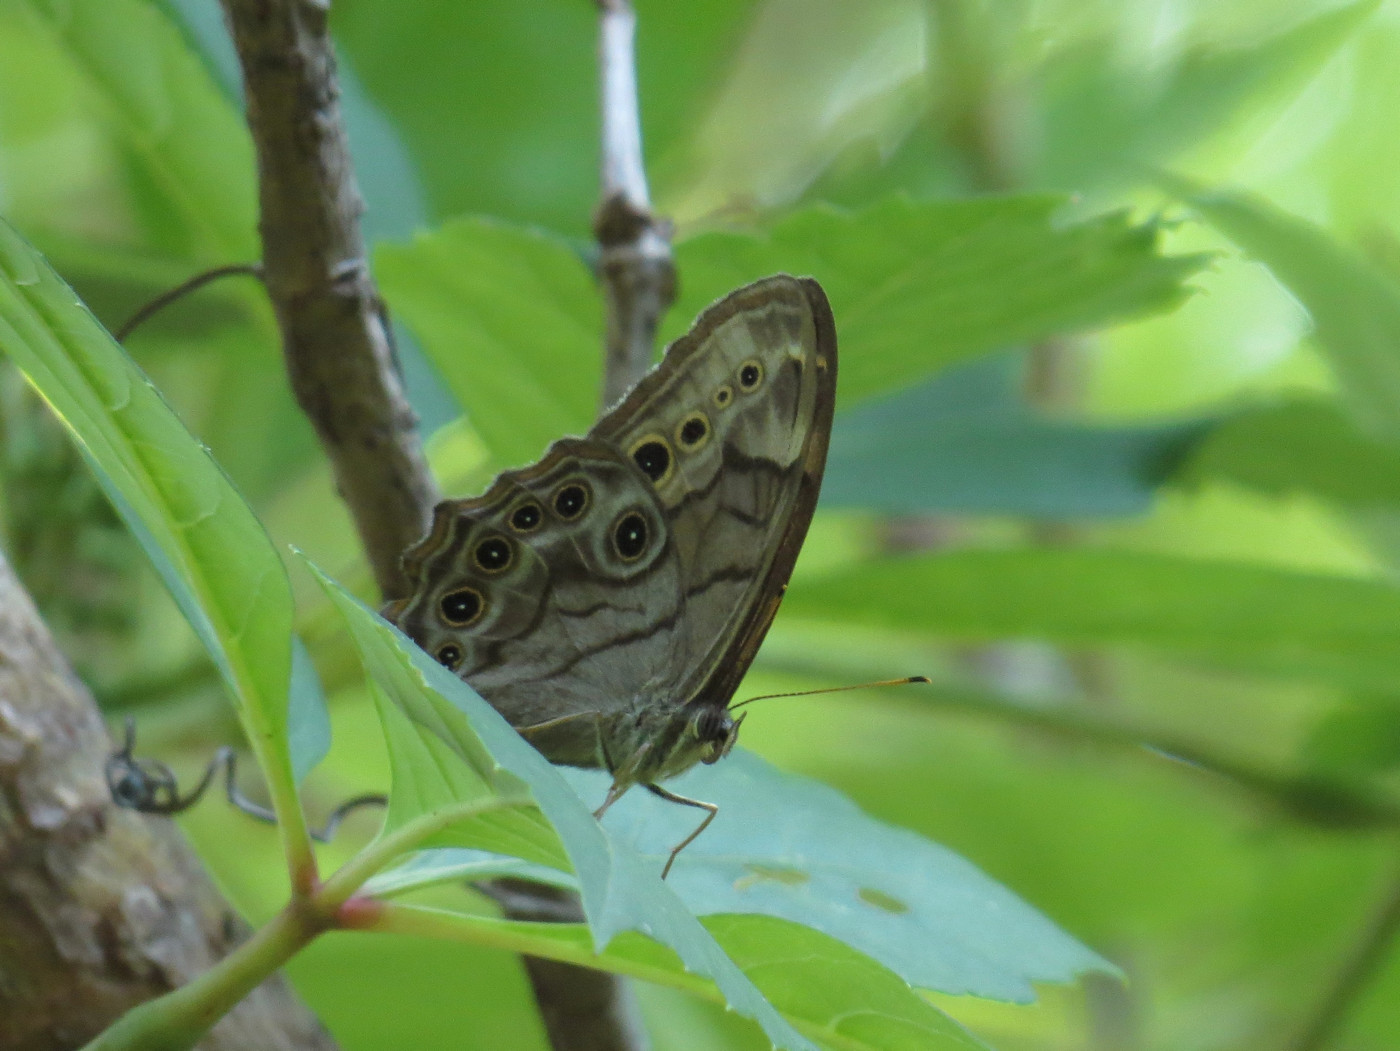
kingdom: Animalia
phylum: Arthropoda
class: Insecta
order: Lepidoptera
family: Nymphalidae
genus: Lethe
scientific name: Lethe anthedon
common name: Northern pearly-eye
